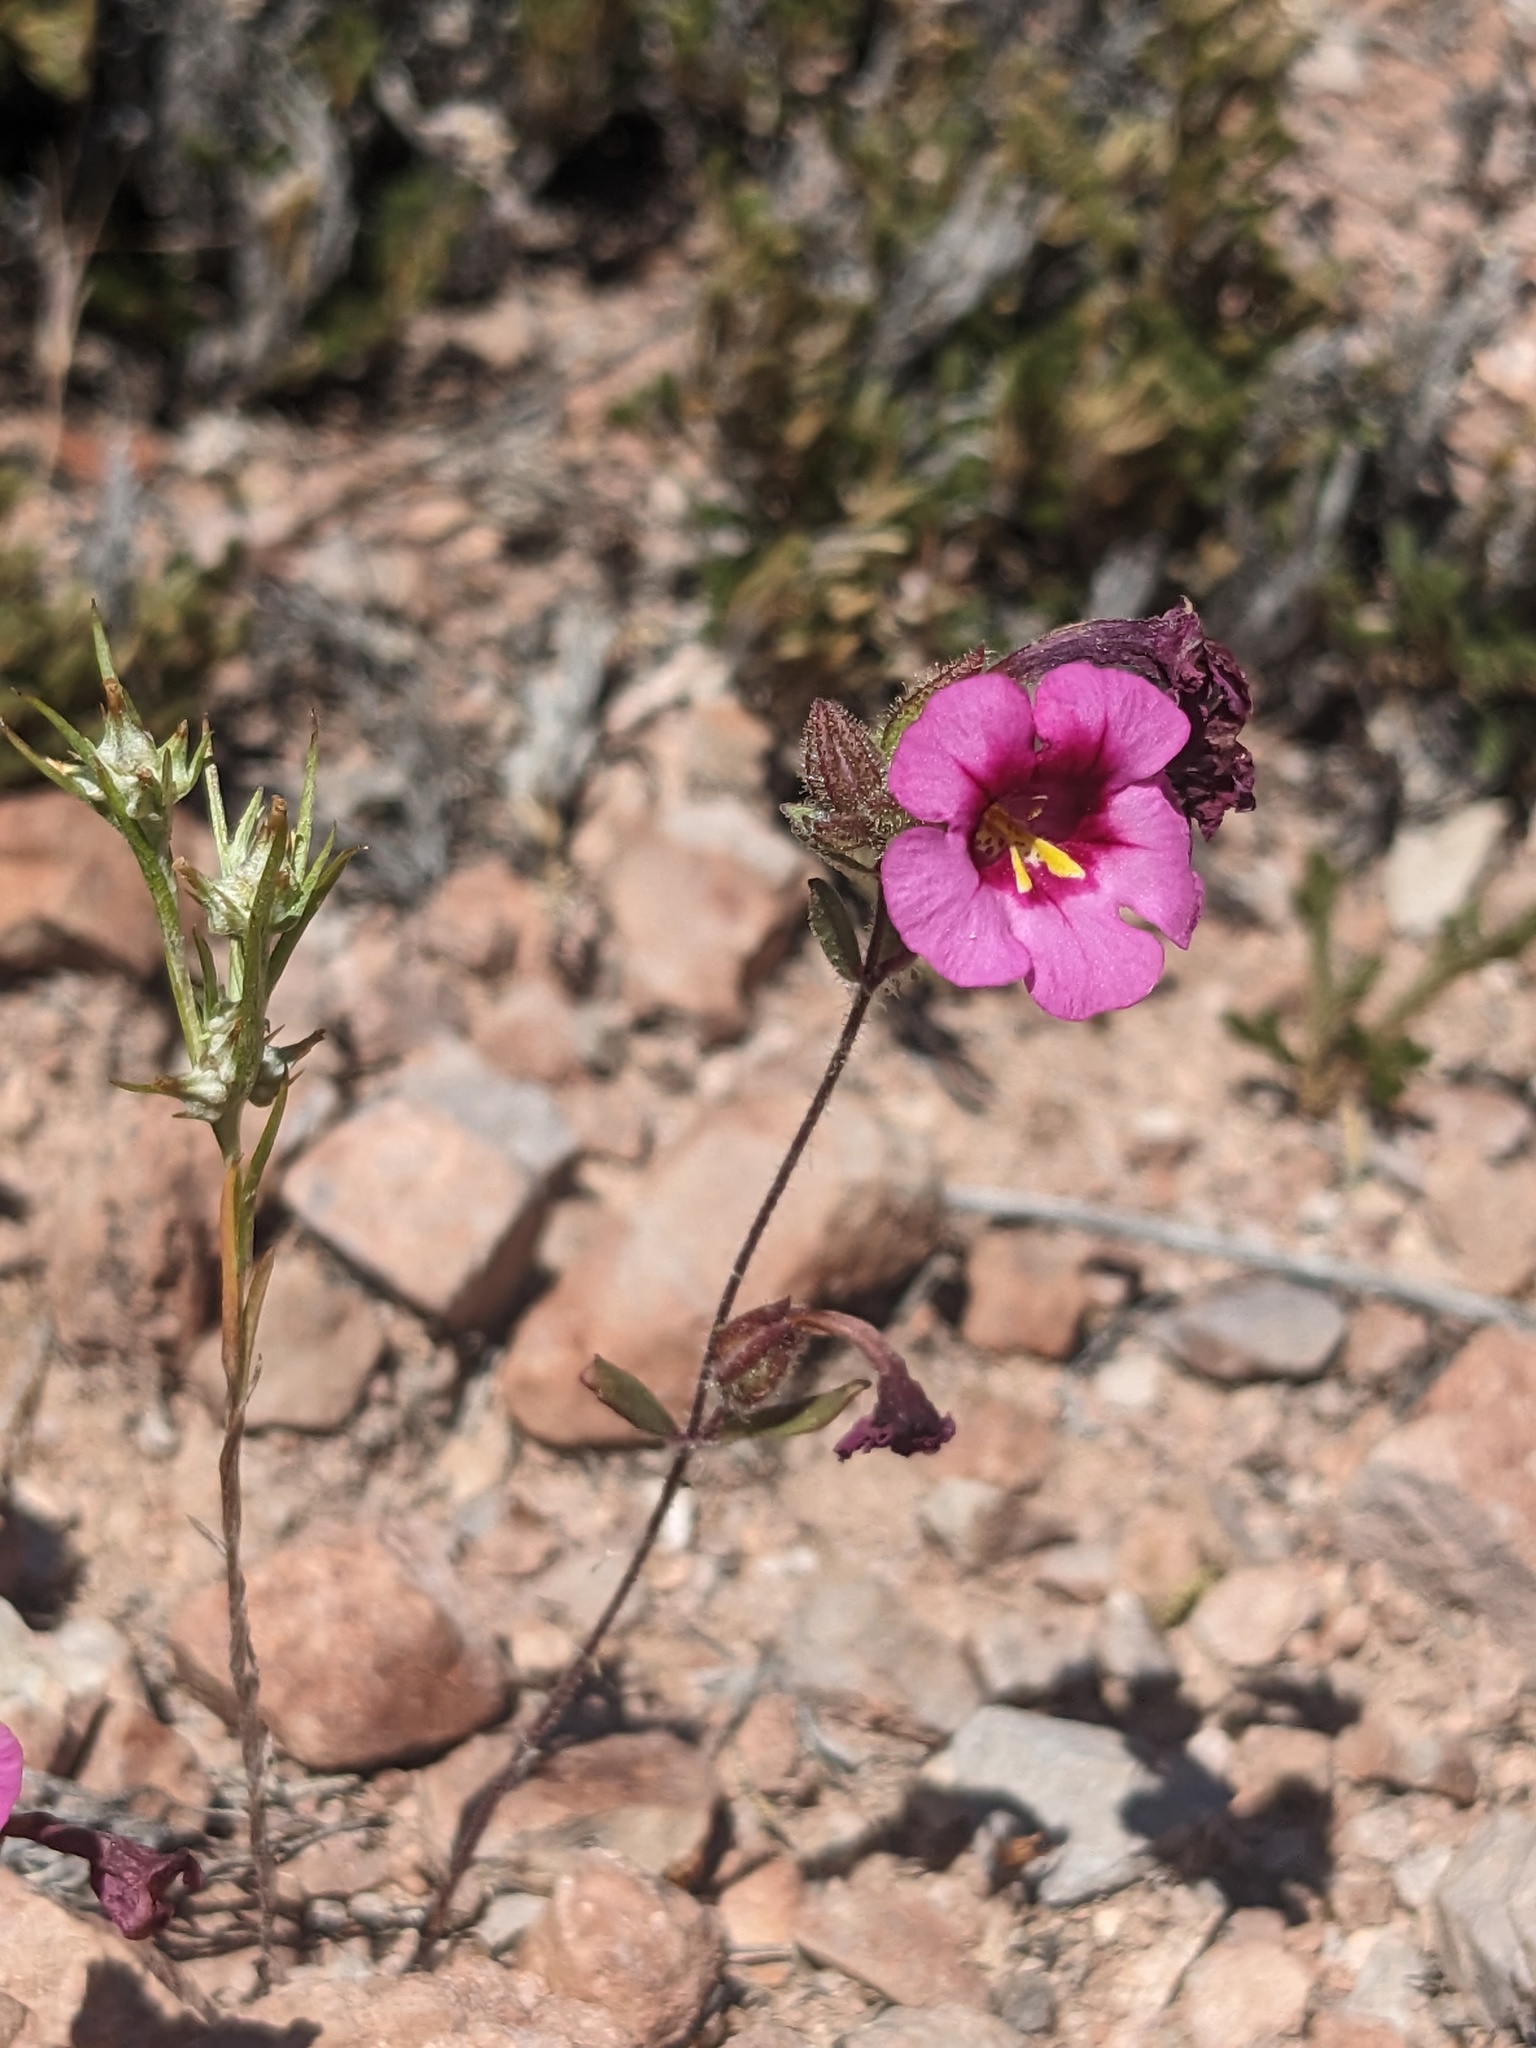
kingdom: Plantae
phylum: Tracheophyta
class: Magnoliopsida
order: Lamiales
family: Phrymaceae
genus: Diplacus
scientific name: Diplacus fremontii
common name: Fremont's monkey-flower
